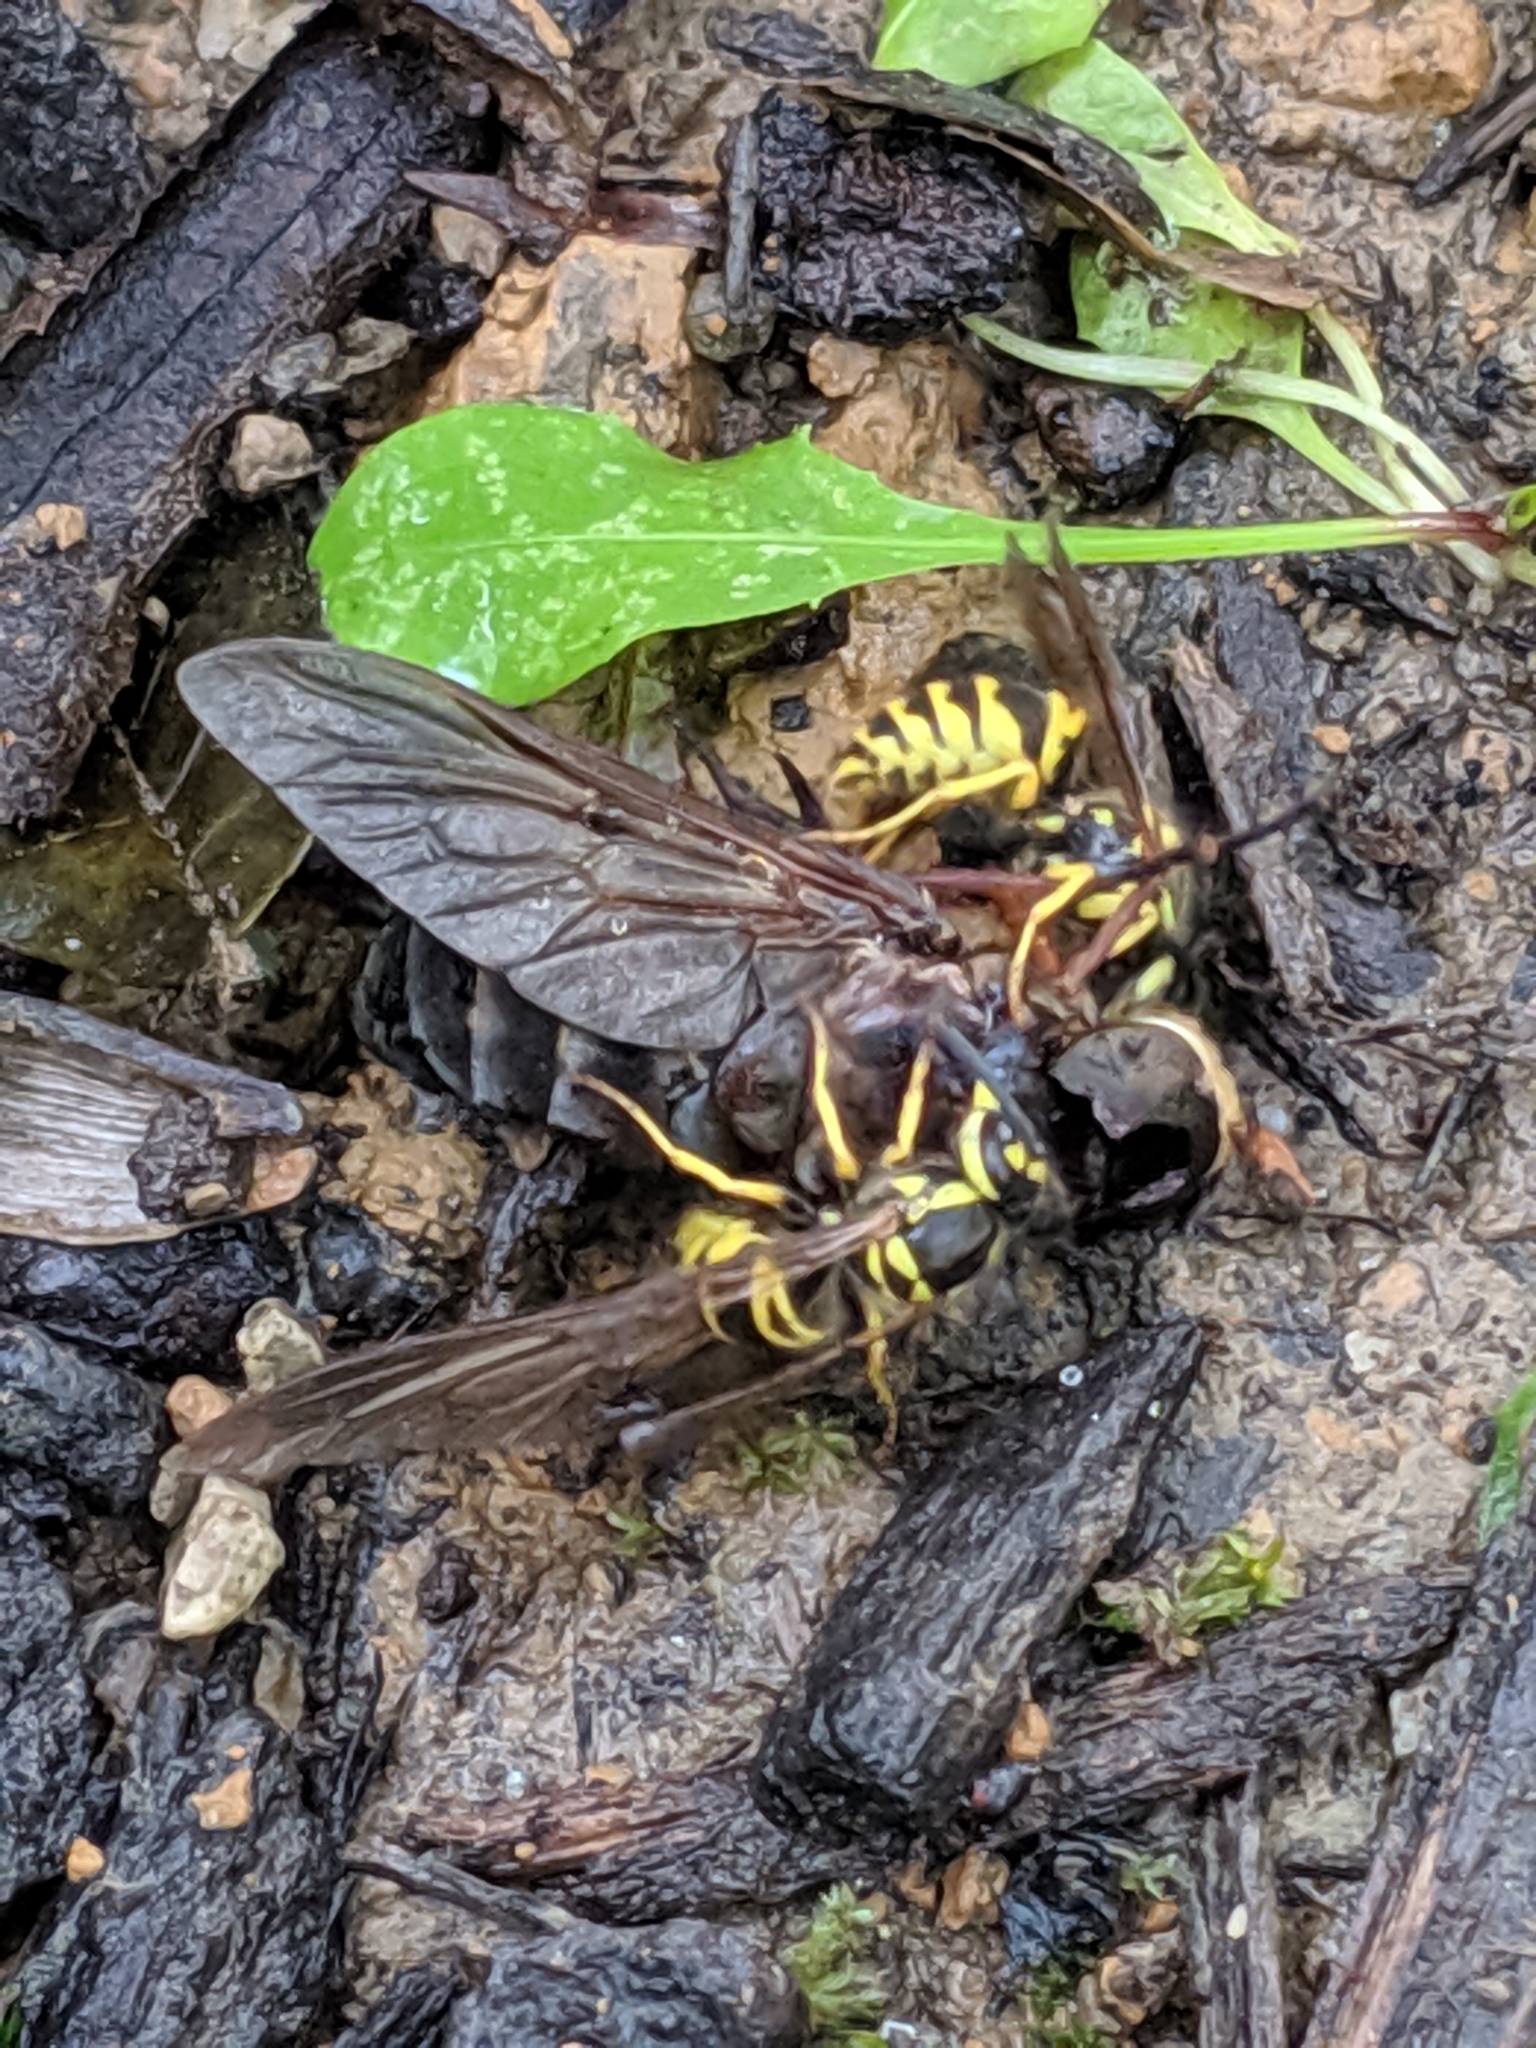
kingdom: Animalia
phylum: Arthropoda
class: Insecta
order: Hymenoptera
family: Vespidae
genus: Vespula
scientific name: Vespula maculifrons
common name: Eastern yellowjacket
